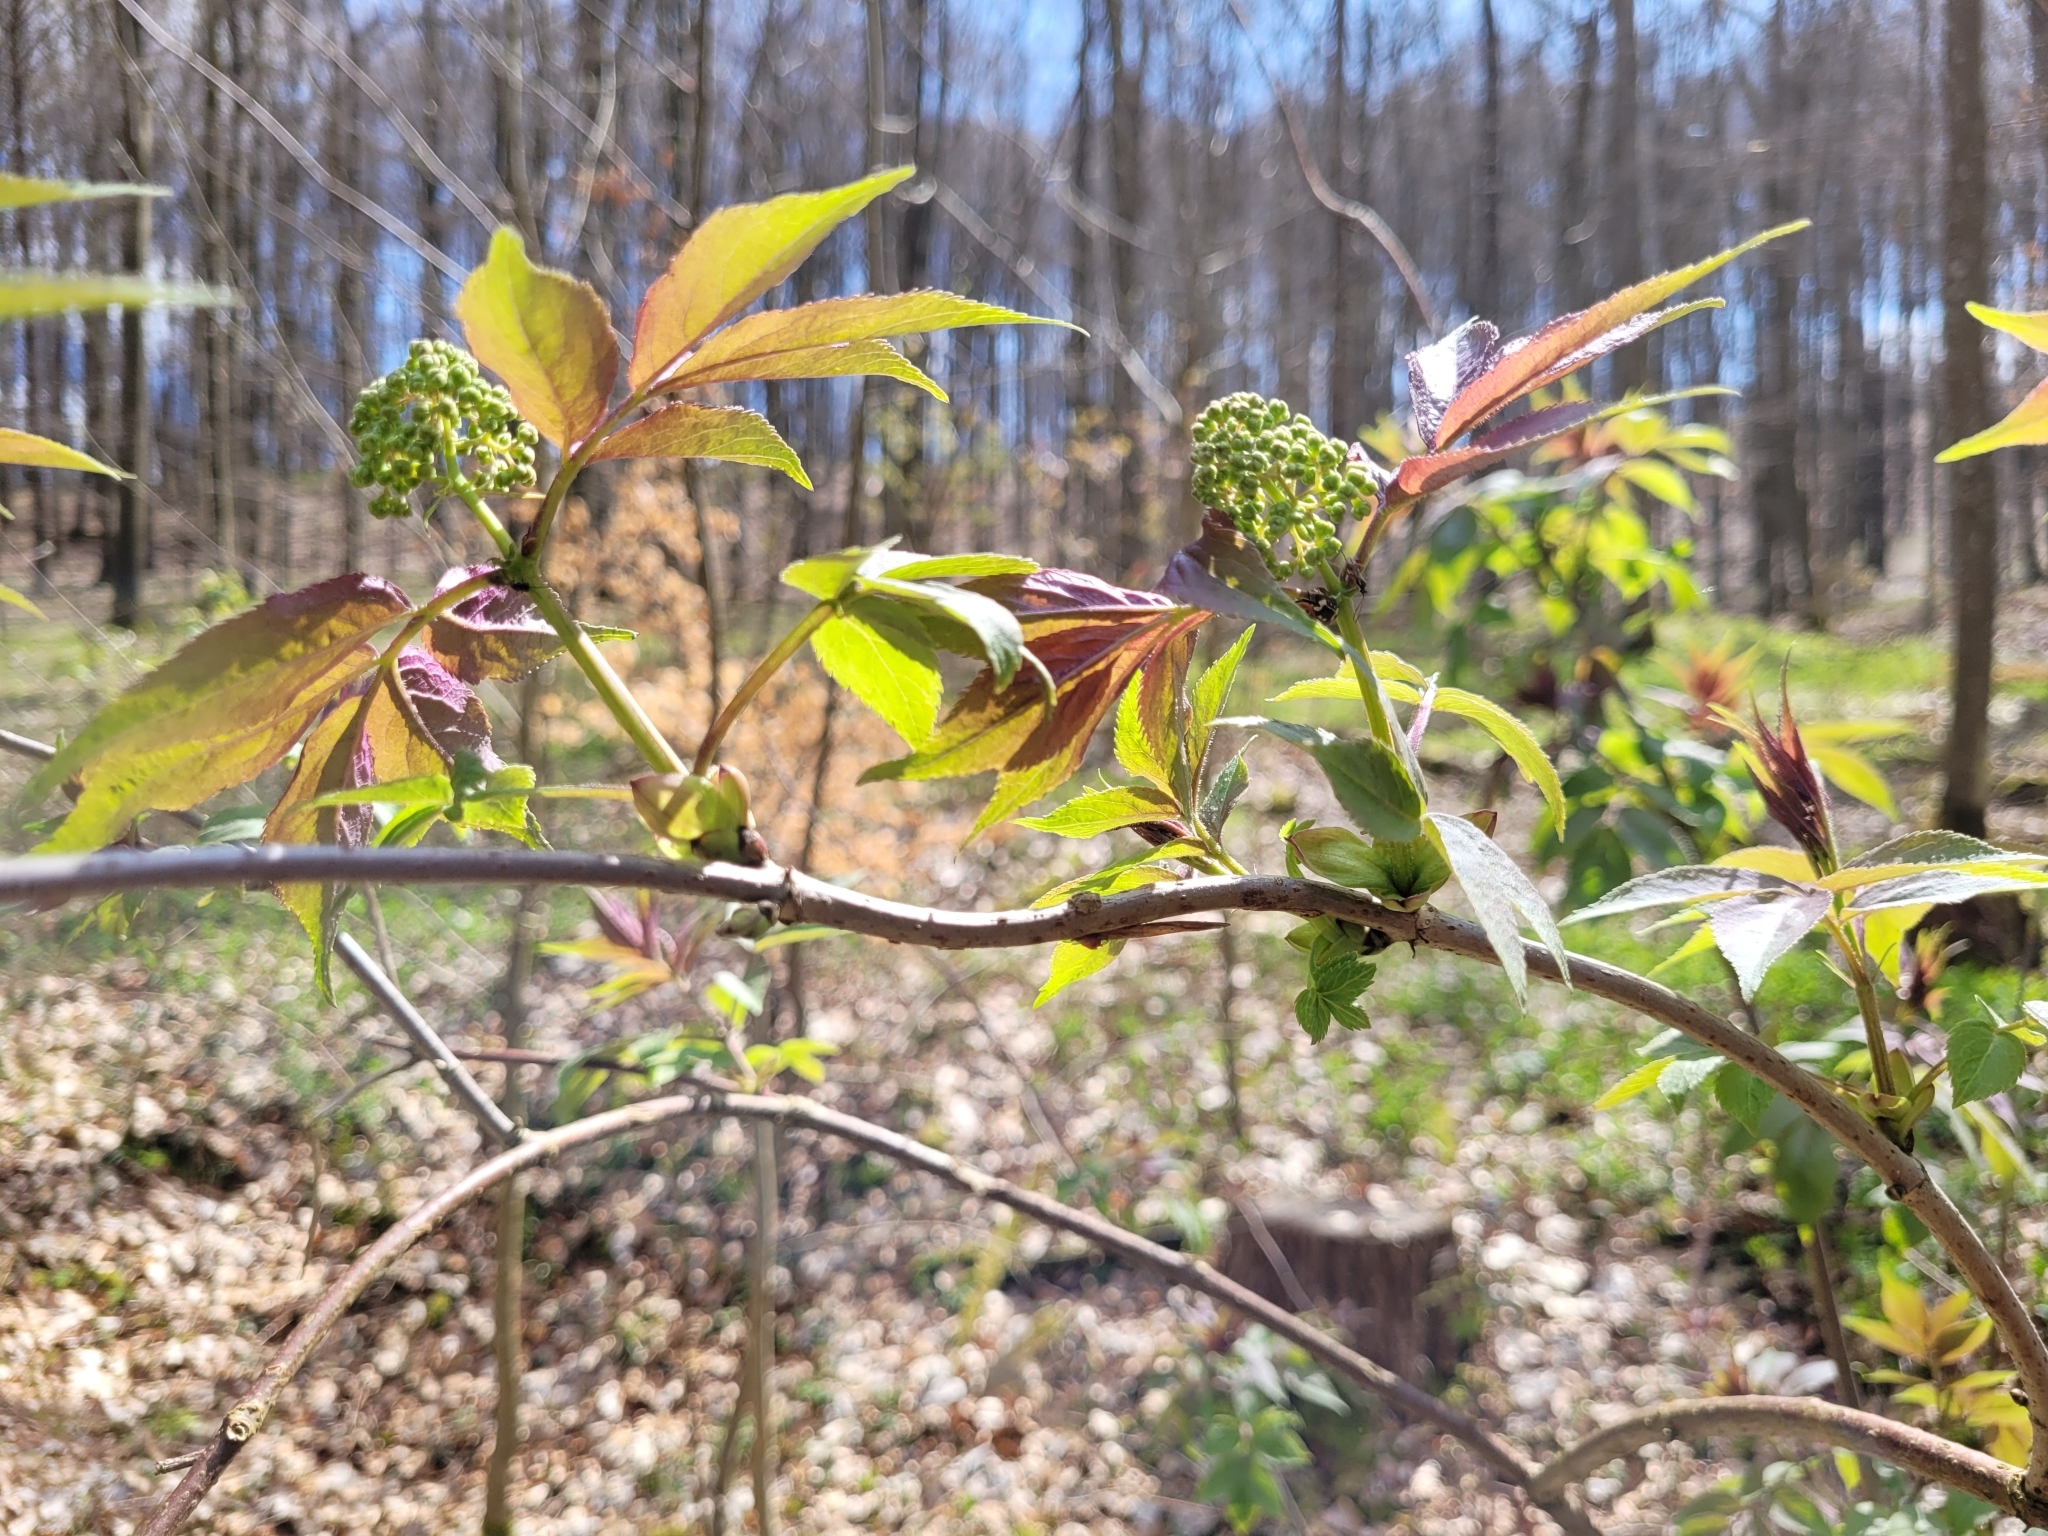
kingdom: Plantae
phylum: Tracheophyta
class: Magnoliopsida
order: Dipsacales
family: Viburnaceae
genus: Sambucus
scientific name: Sambucus racemosa
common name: Red-berried elder
